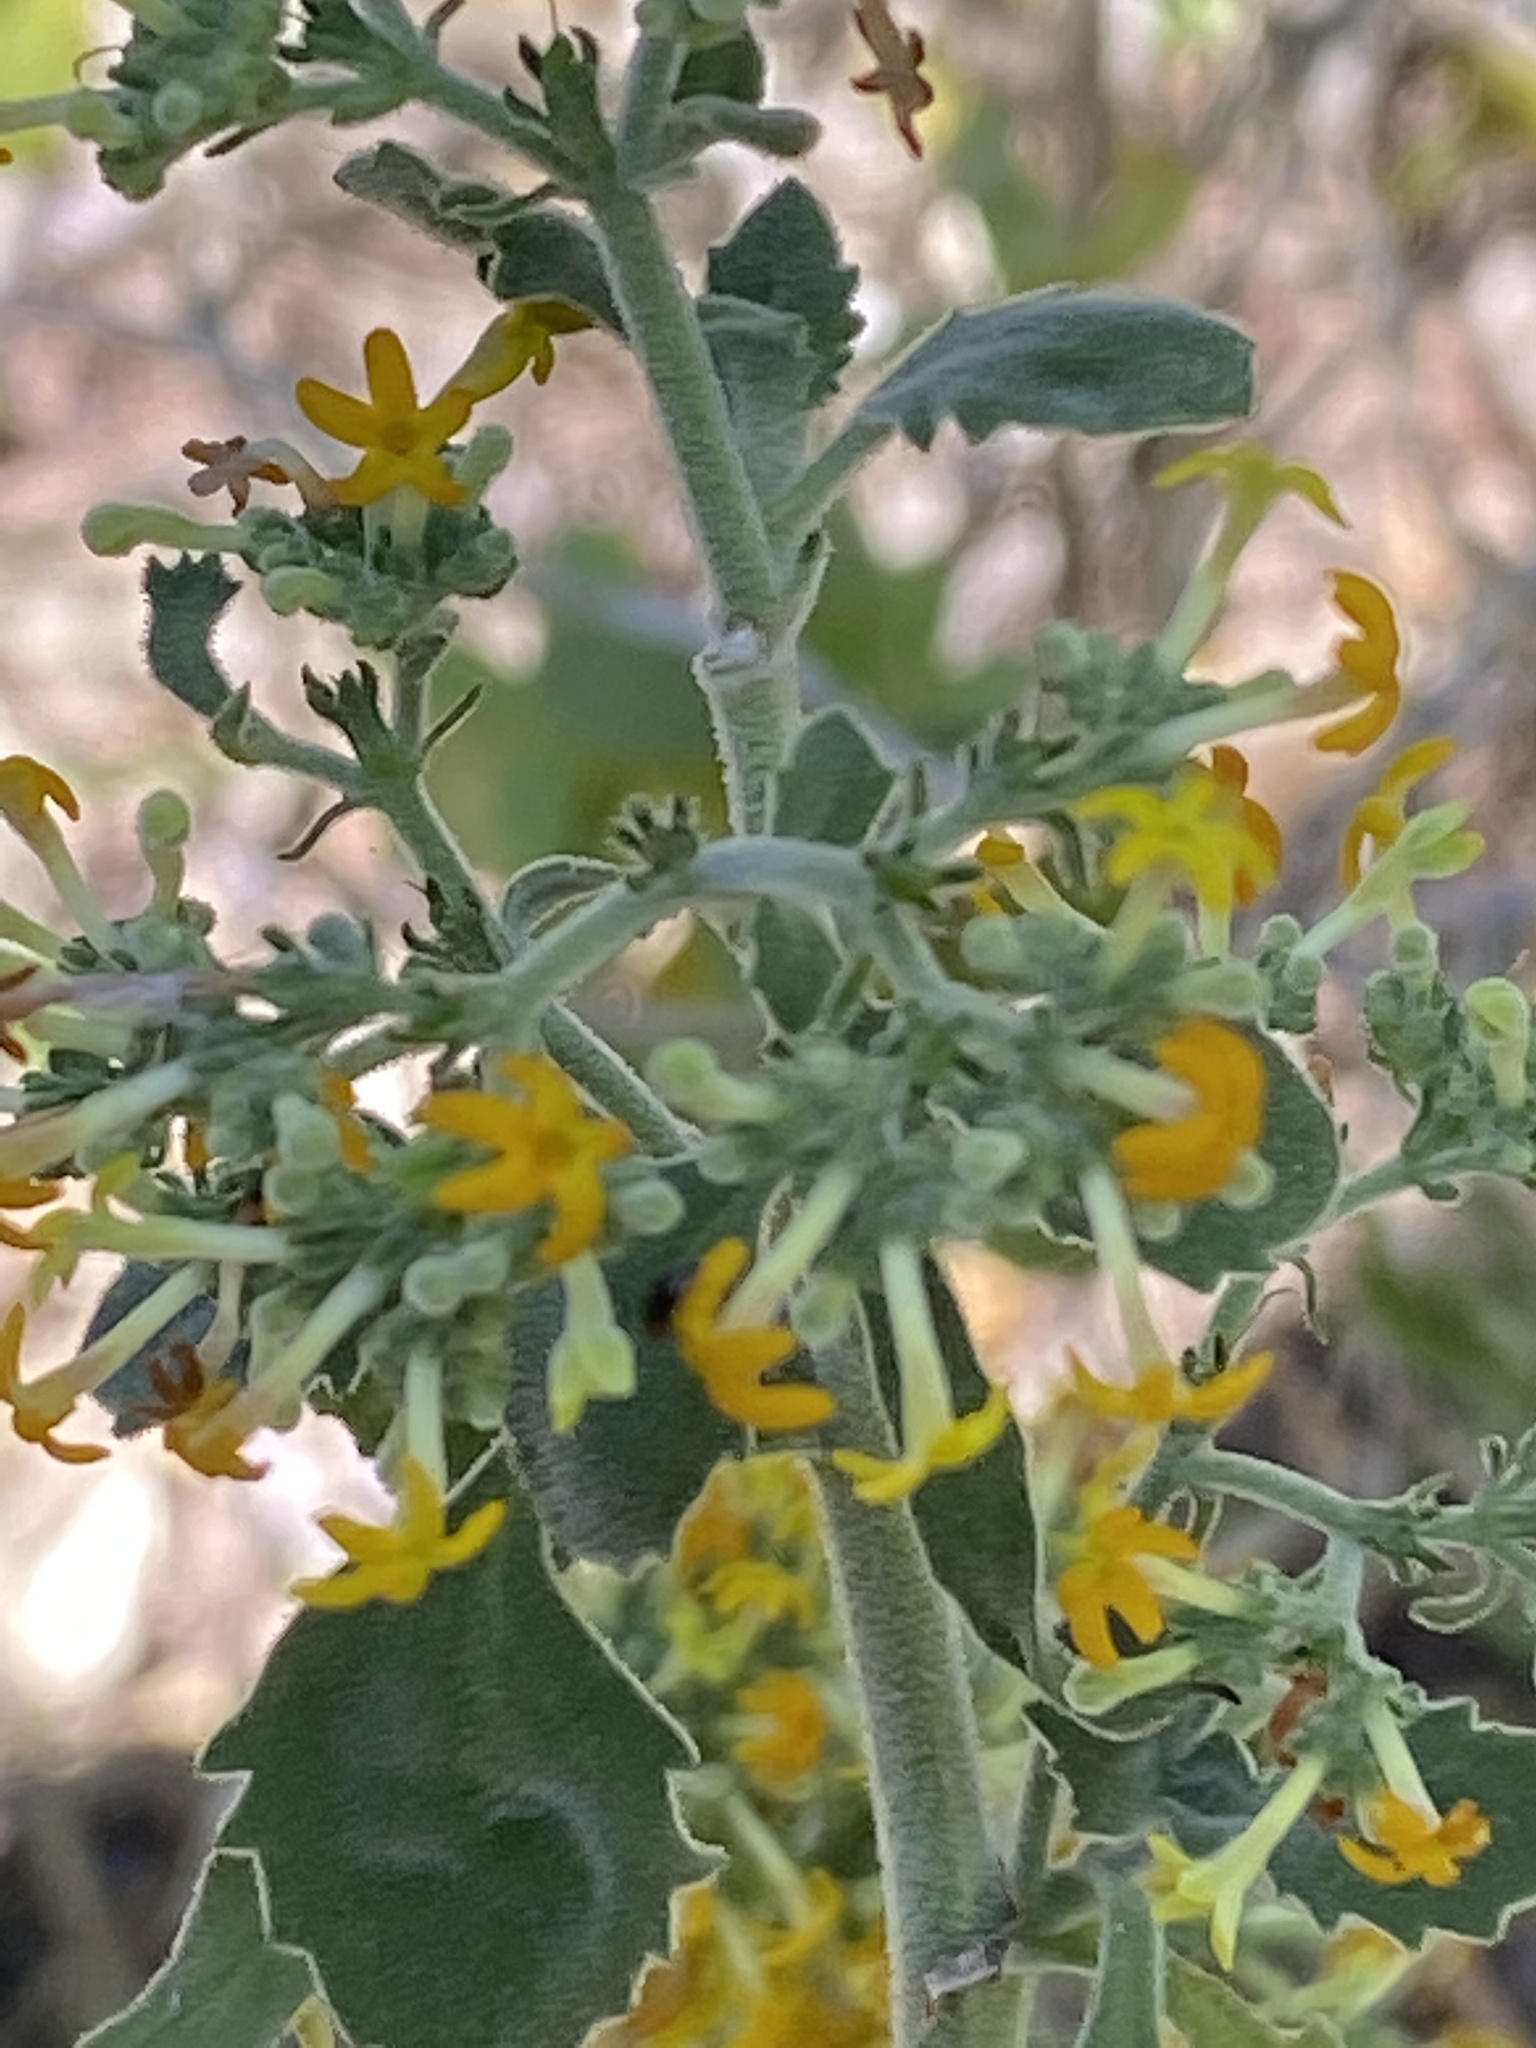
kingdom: Plantae
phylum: Tracheophyta
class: Magnoliopsida
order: Lamiales
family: Scrophulariaceae
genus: Manulea
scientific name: Manulea thyrsiflora
